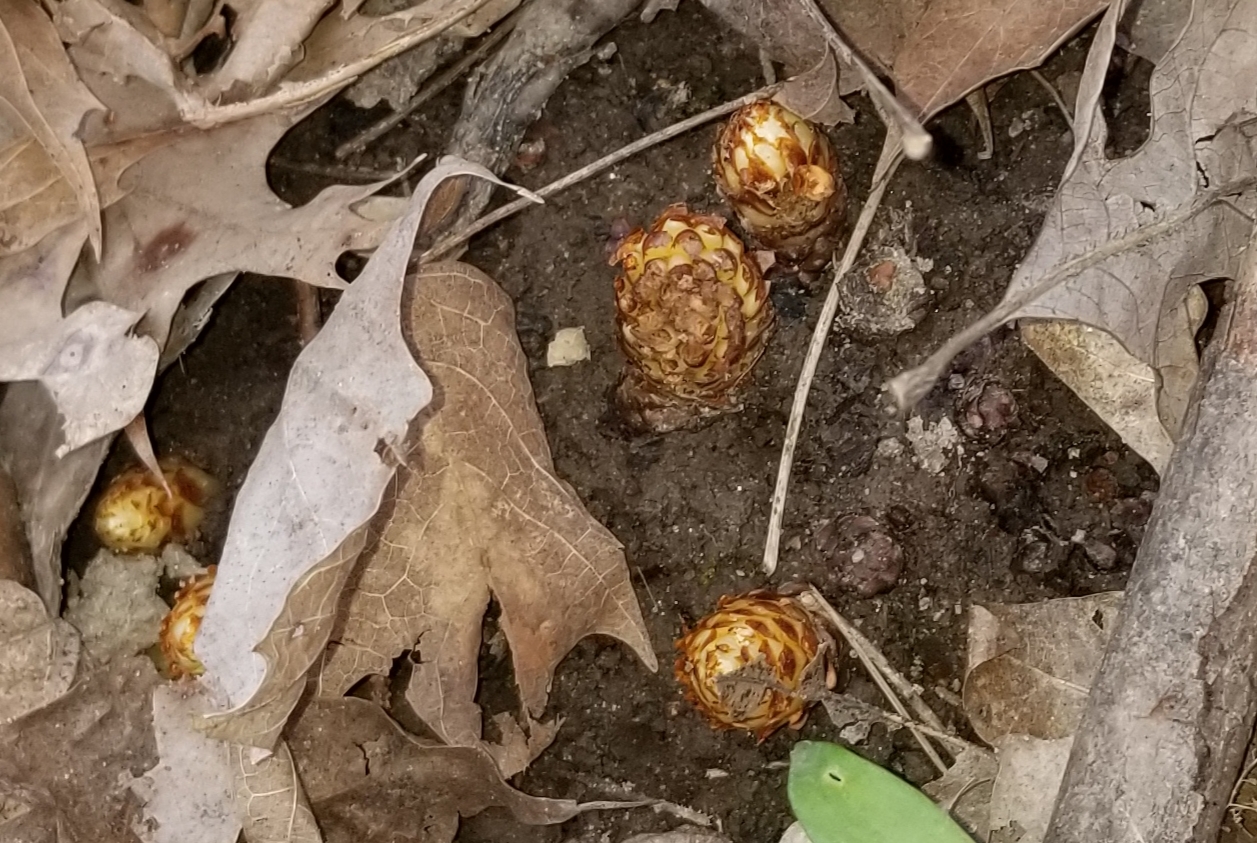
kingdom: Plantae
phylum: Tracheophyta
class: Magnoliopsida
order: Lamiales
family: Orobanchaceae
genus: Conopholis
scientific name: Conopholis americana
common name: American cancer-root
